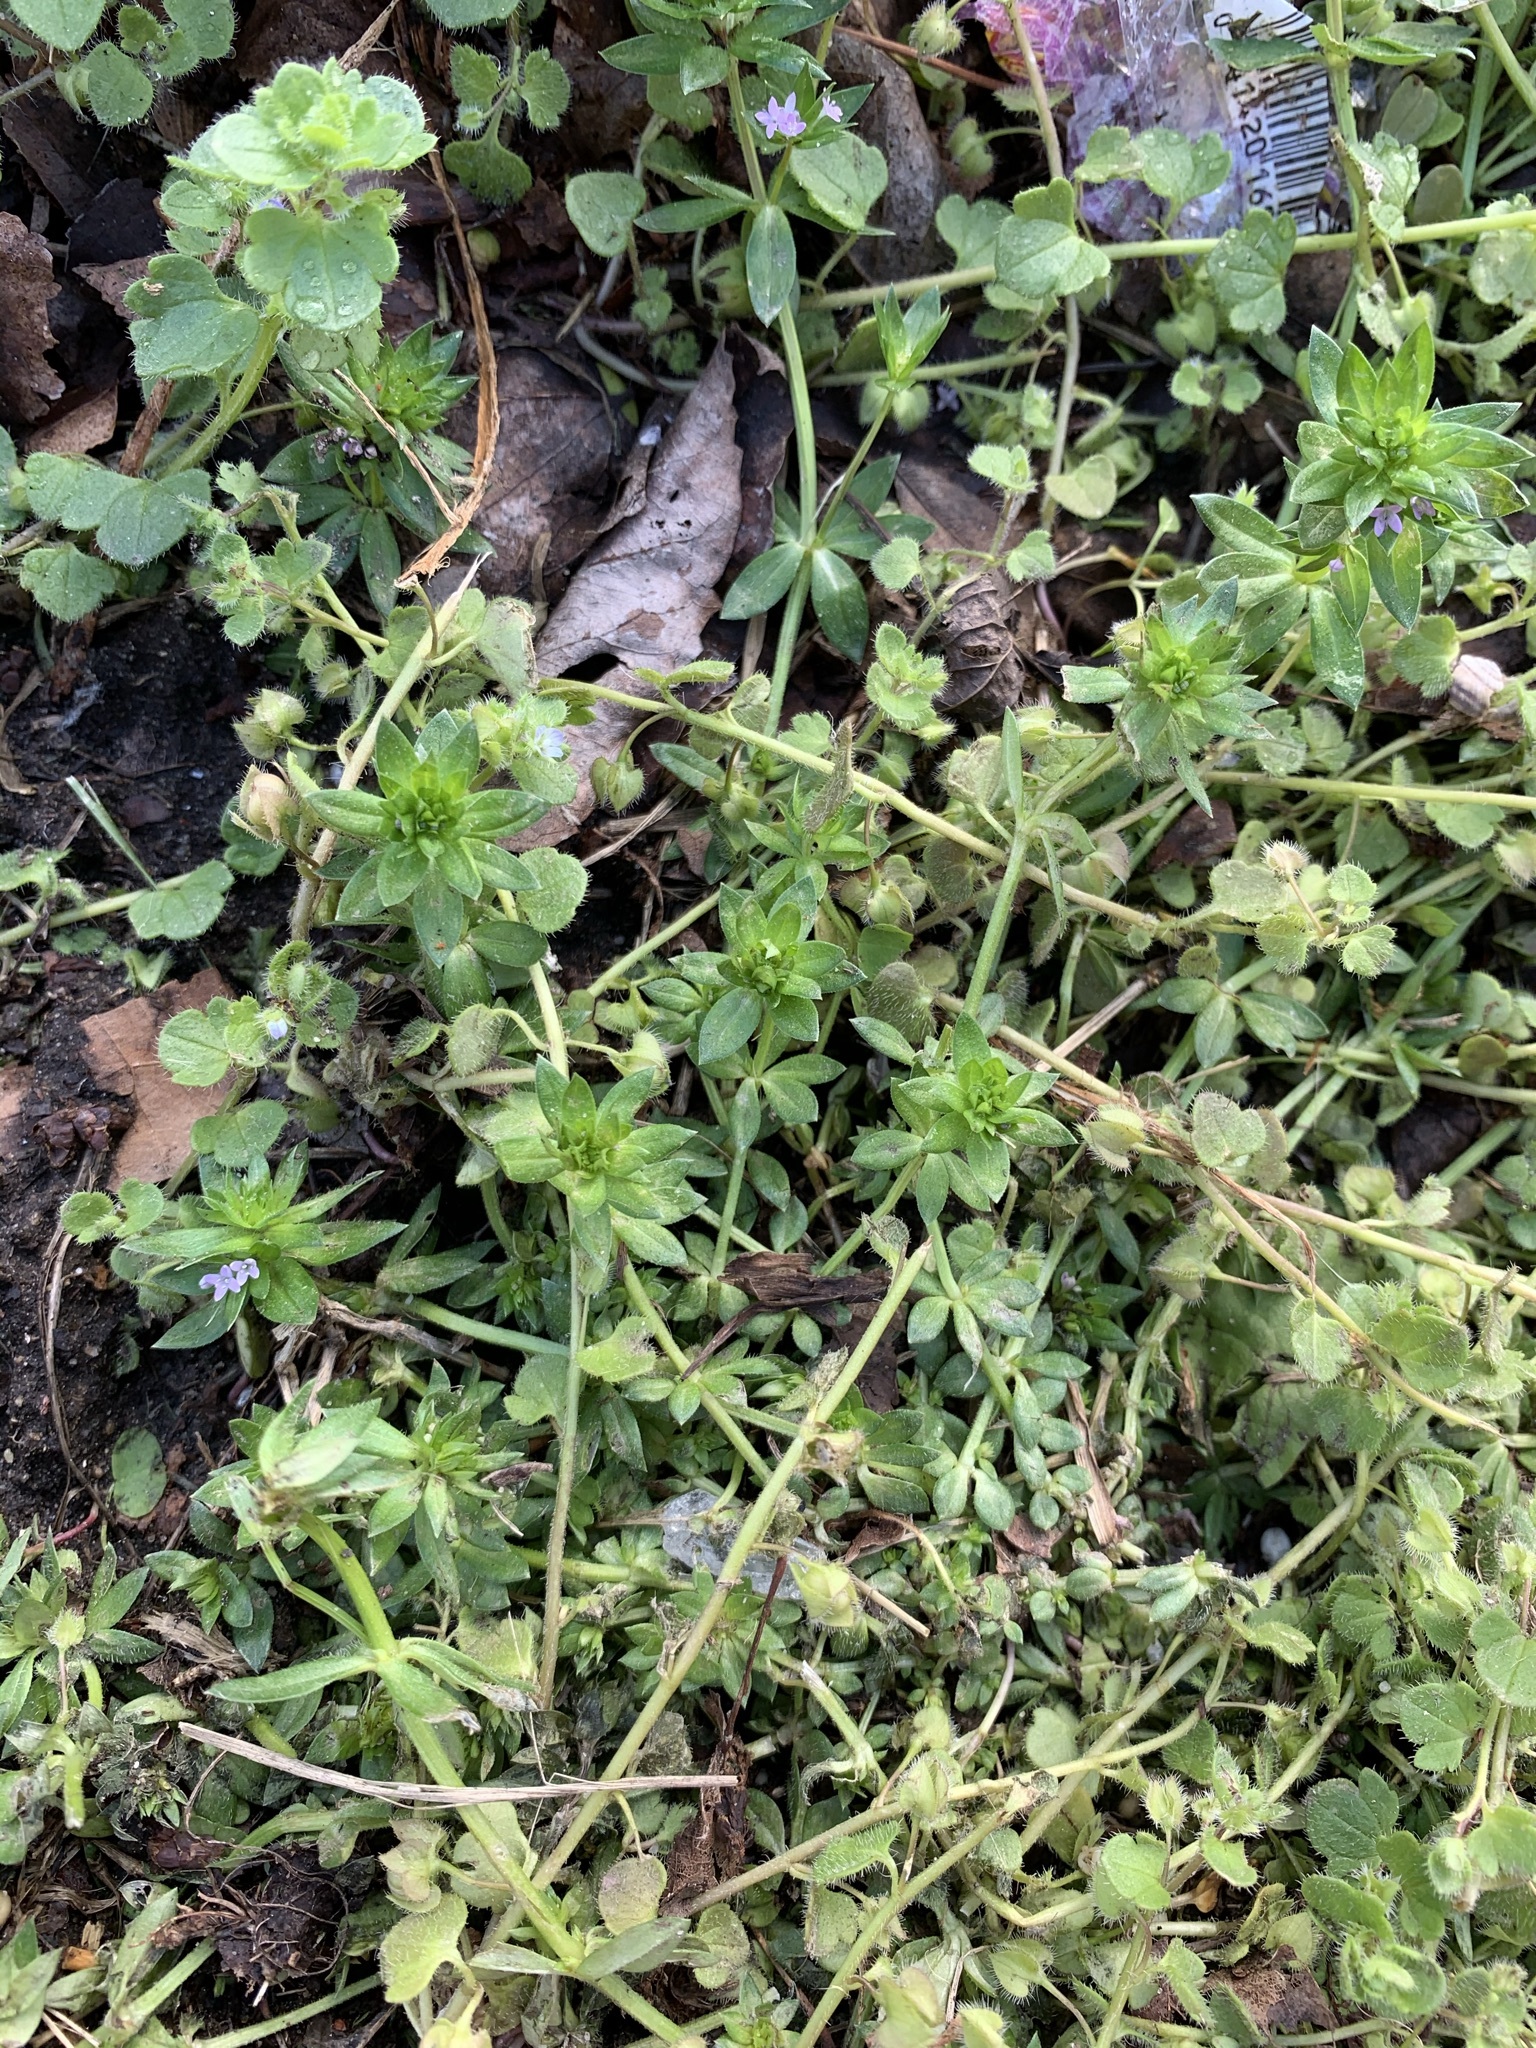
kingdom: Plantae
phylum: Tracheophyta
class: Magnoliopsida
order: Gentianales
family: Rubiaceae
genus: Sherardia
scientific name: Sherardia arvensis
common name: Field madder
